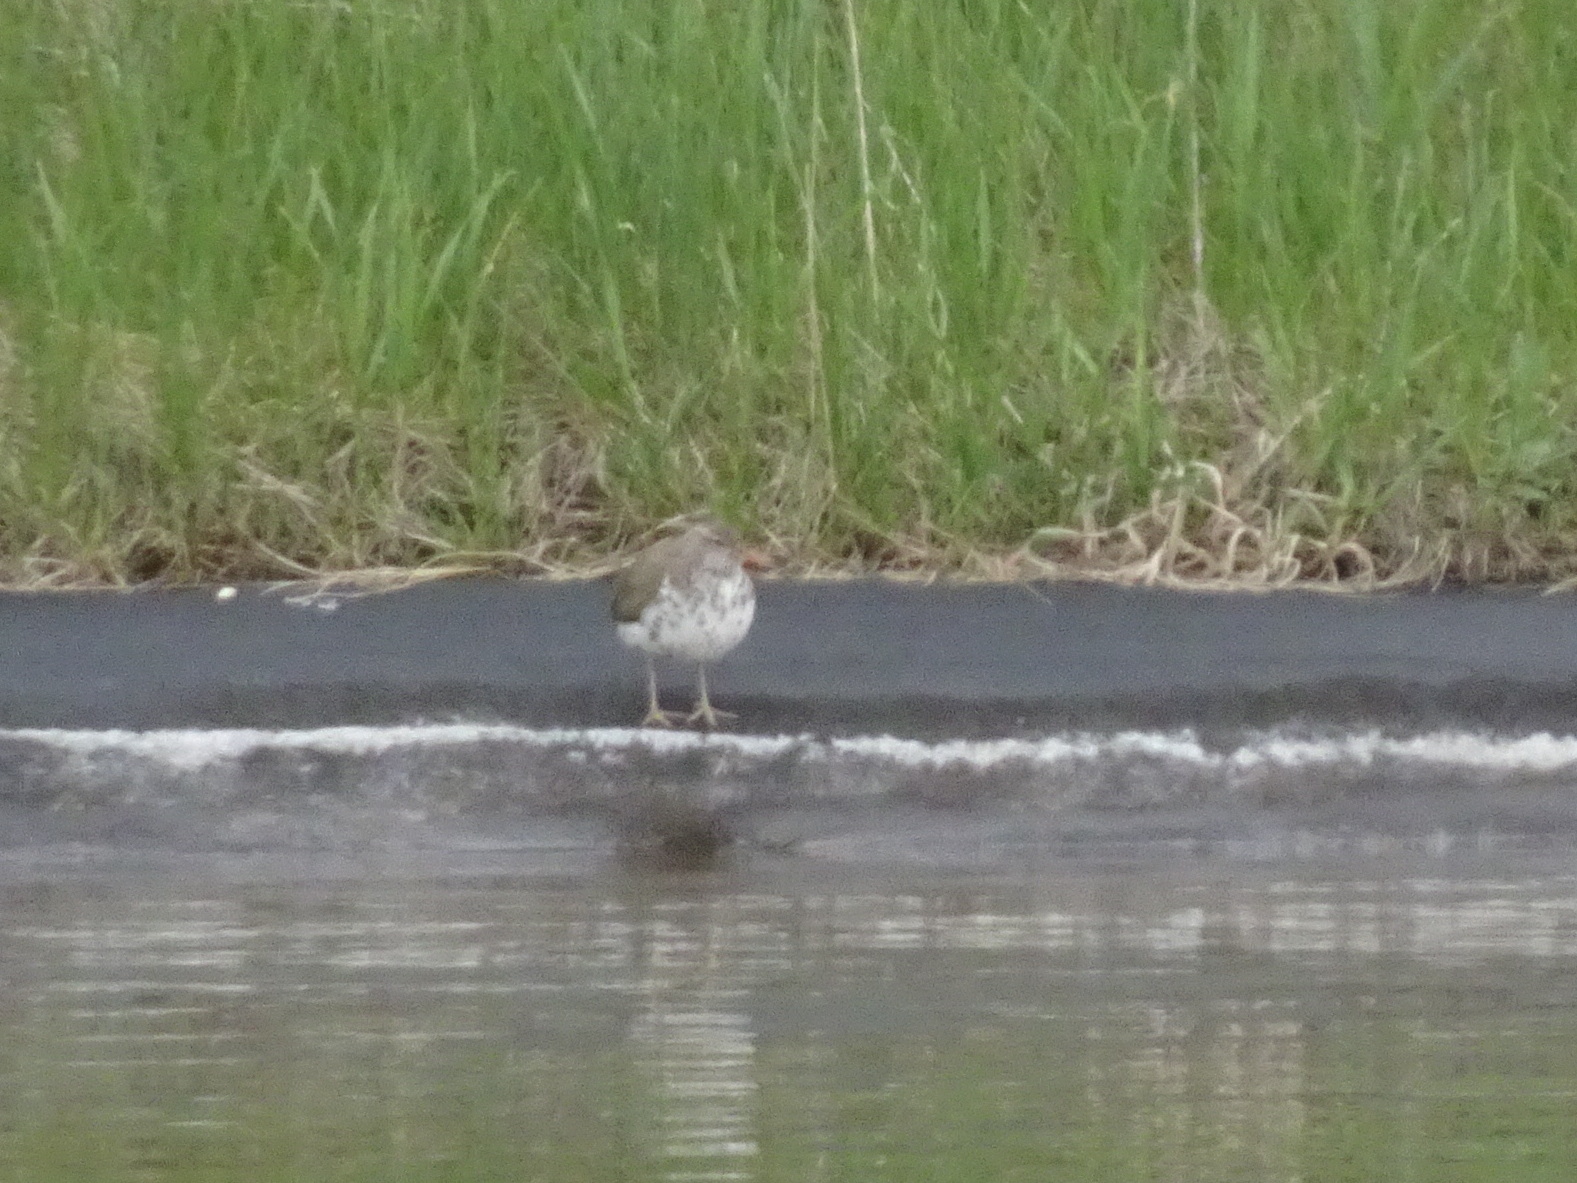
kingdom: Animalia
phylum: Chordata
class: Aves
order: Charadriiformes
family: Scolopacidae
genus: Actitis
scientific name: Actitis macularius
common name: Spotted sandpiper
